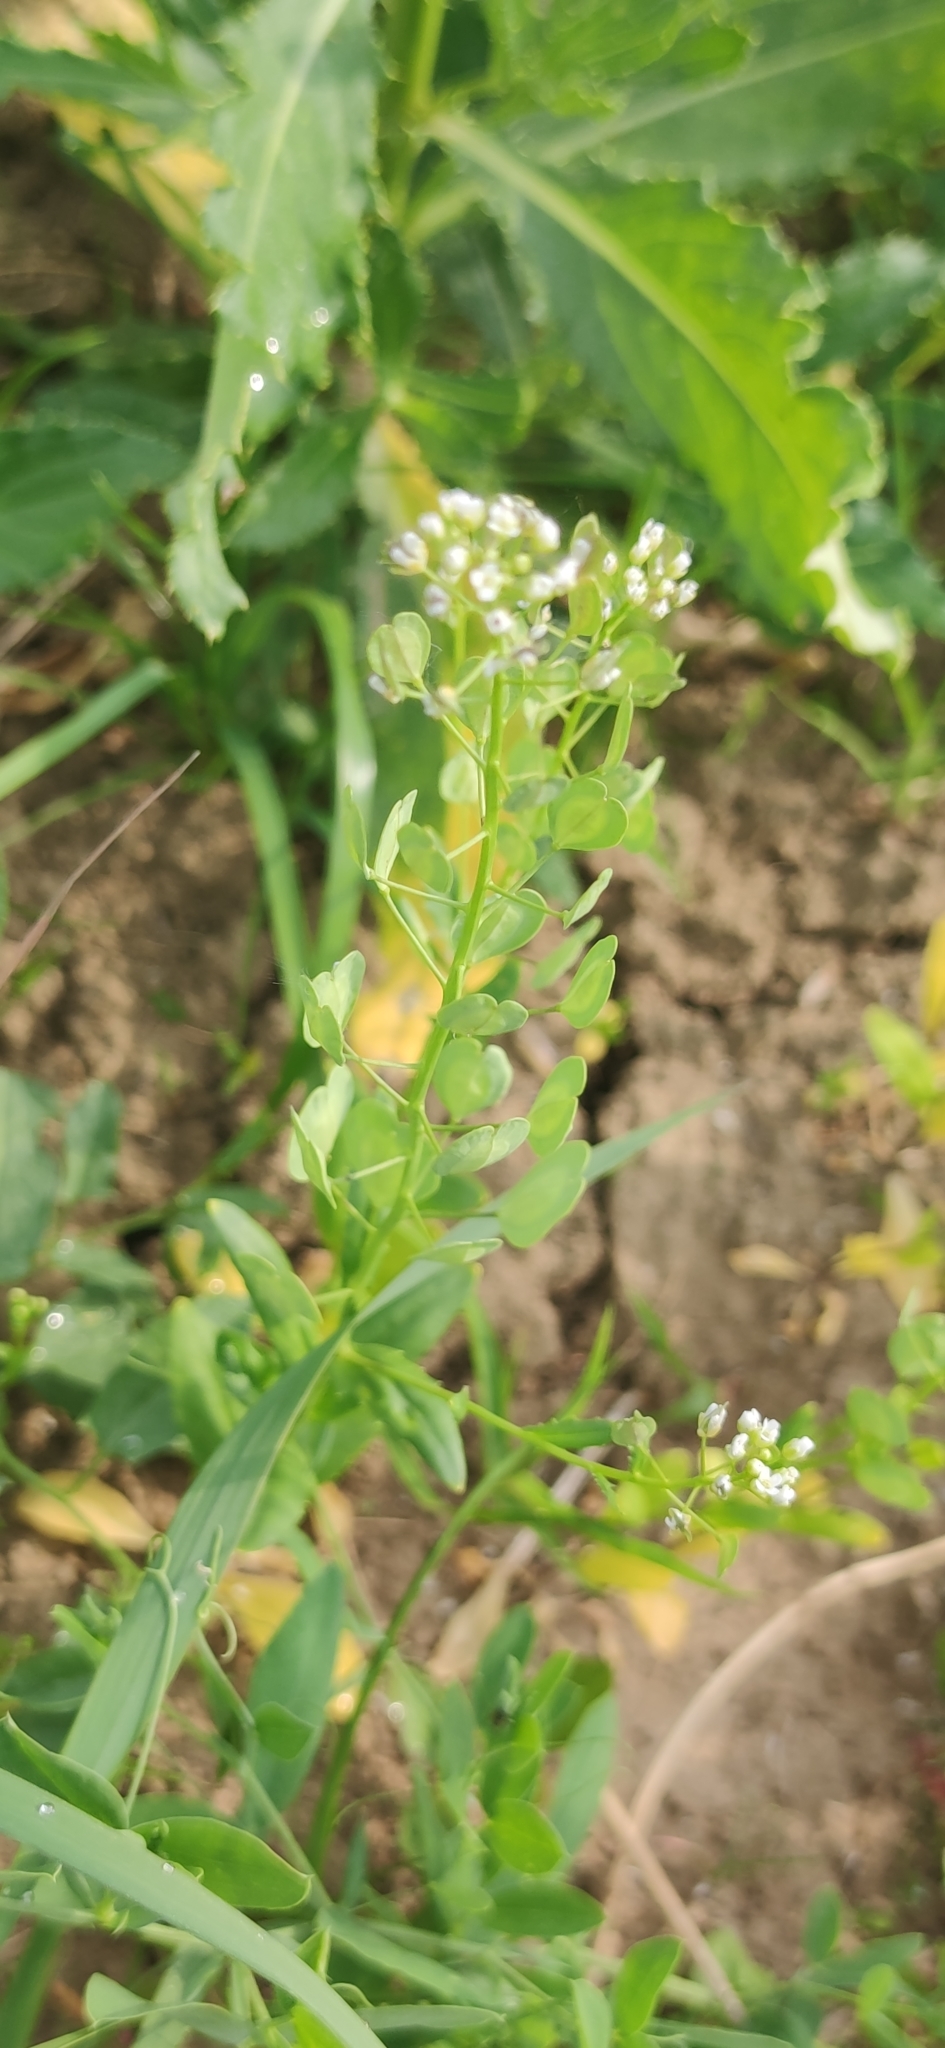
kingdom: Plantae
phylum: Tracheophyta
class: Magnoliopsida
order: Brassicales
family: Brassicaceae
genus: Thlaspi
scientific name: Thlaspi arvense
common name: Field pennycress
